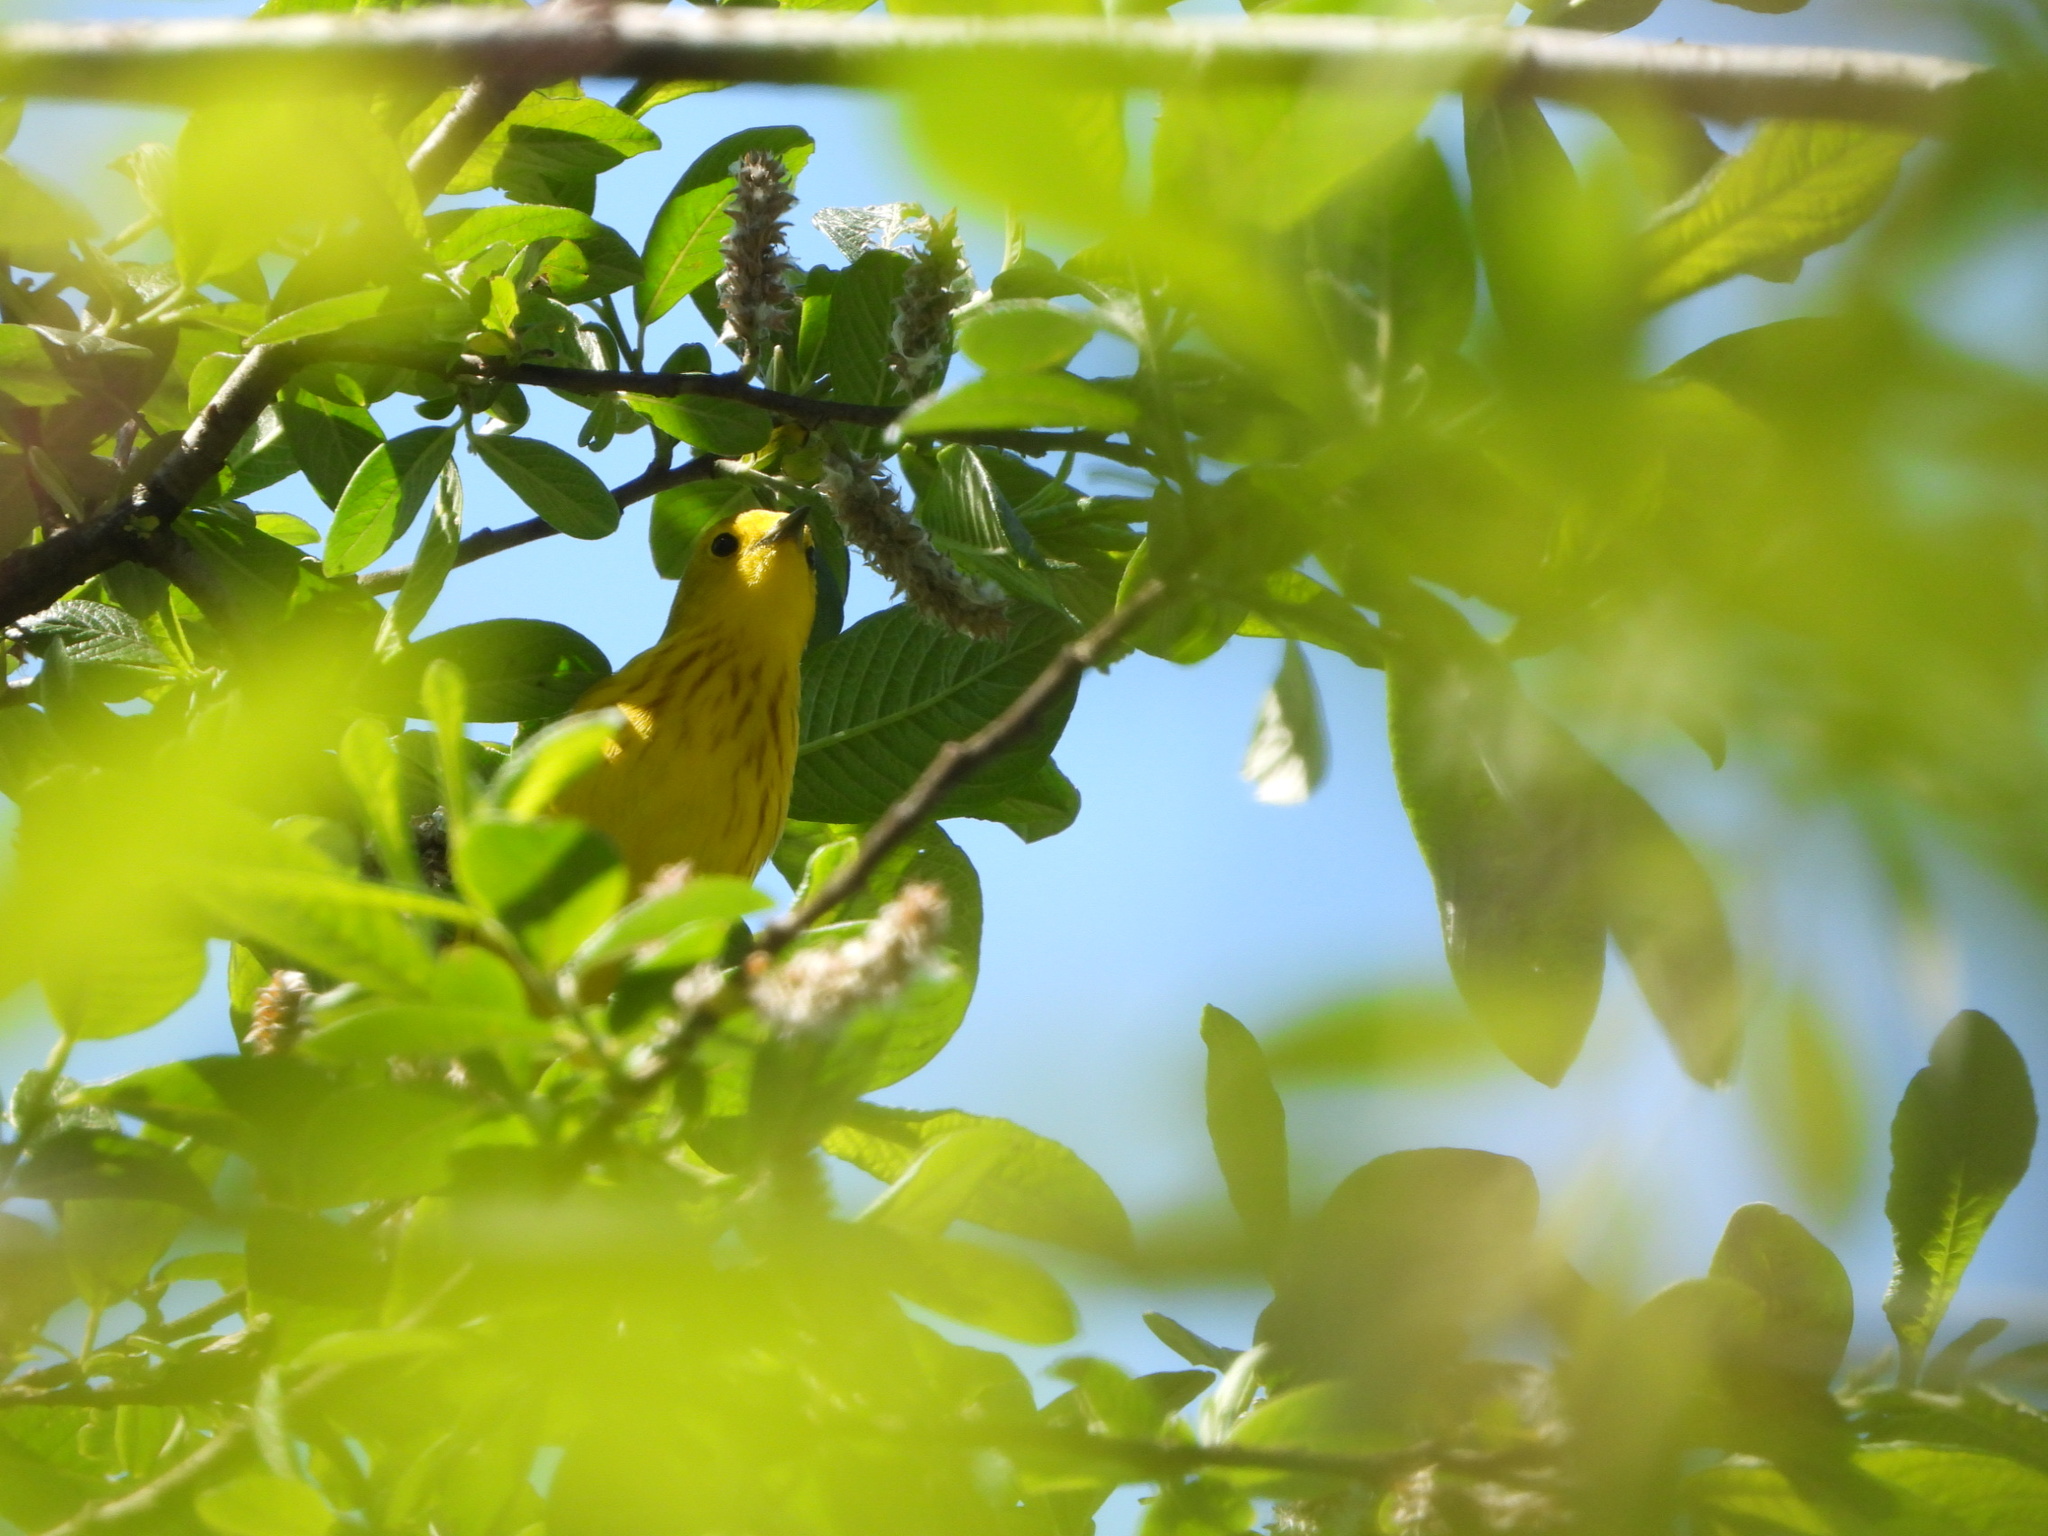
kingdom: Animalia
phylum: Chordata
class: Aves
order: Passeriformes
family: Parulidae
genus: Setophaga
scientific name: Setophaga petechia
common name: Yellow warbler
